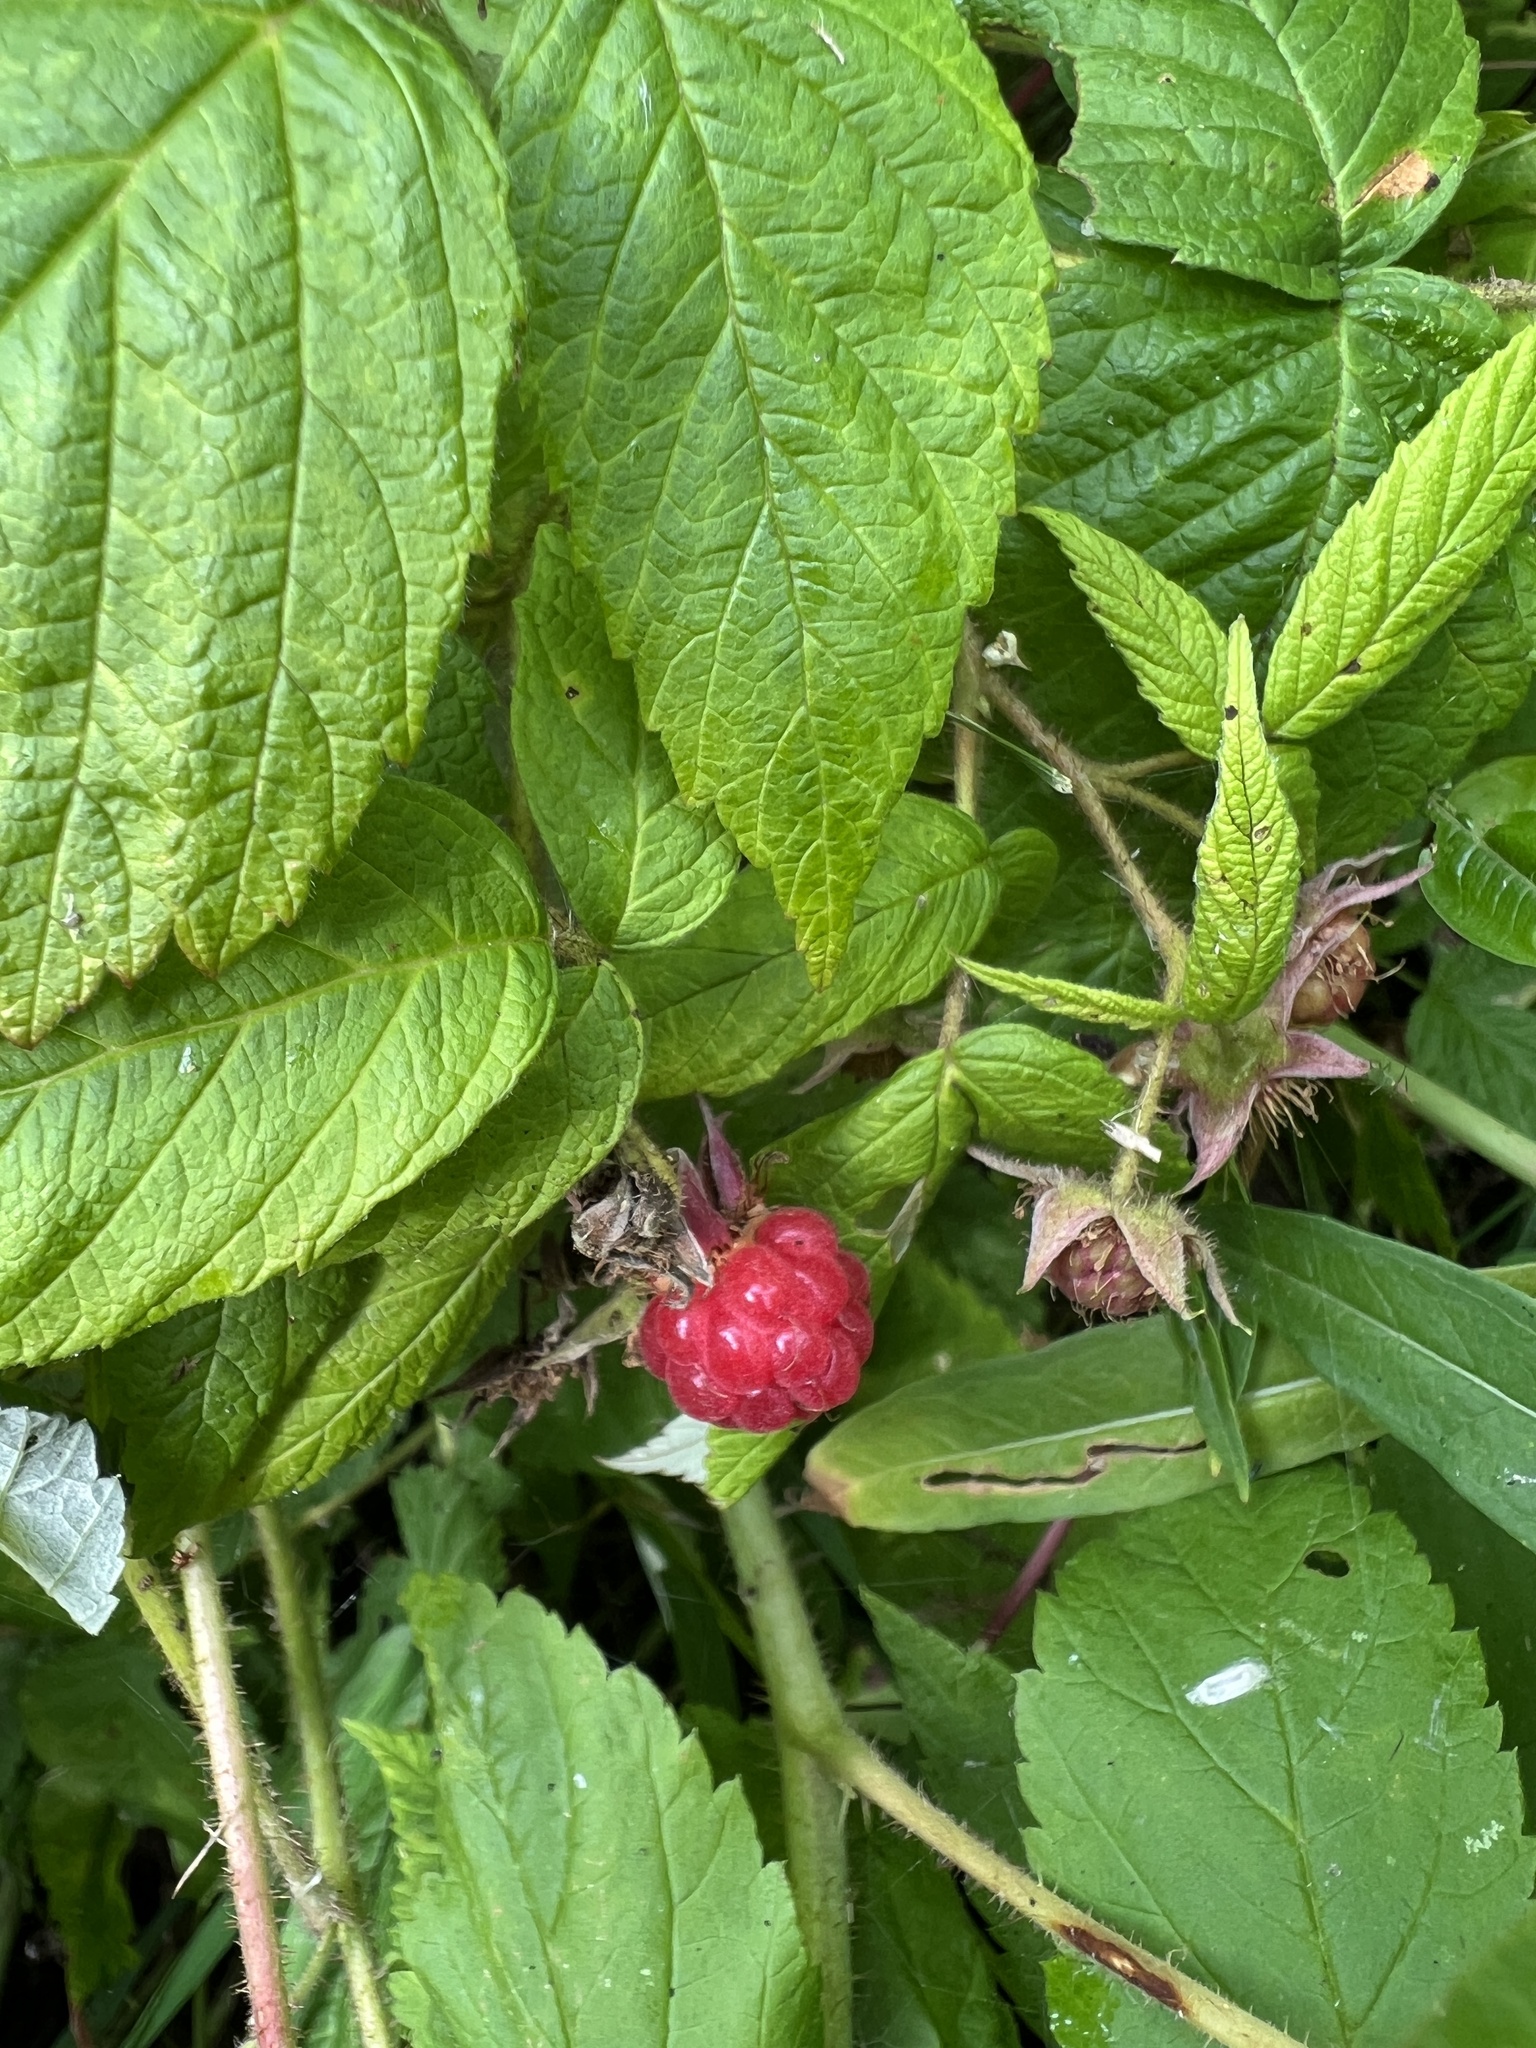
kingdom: Plantae
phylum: Tracheophyta
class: Magnoliopsida
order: Rosales
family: Rosaceae
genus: Rubus
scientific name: Rubus idaeus
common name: Raspberry
